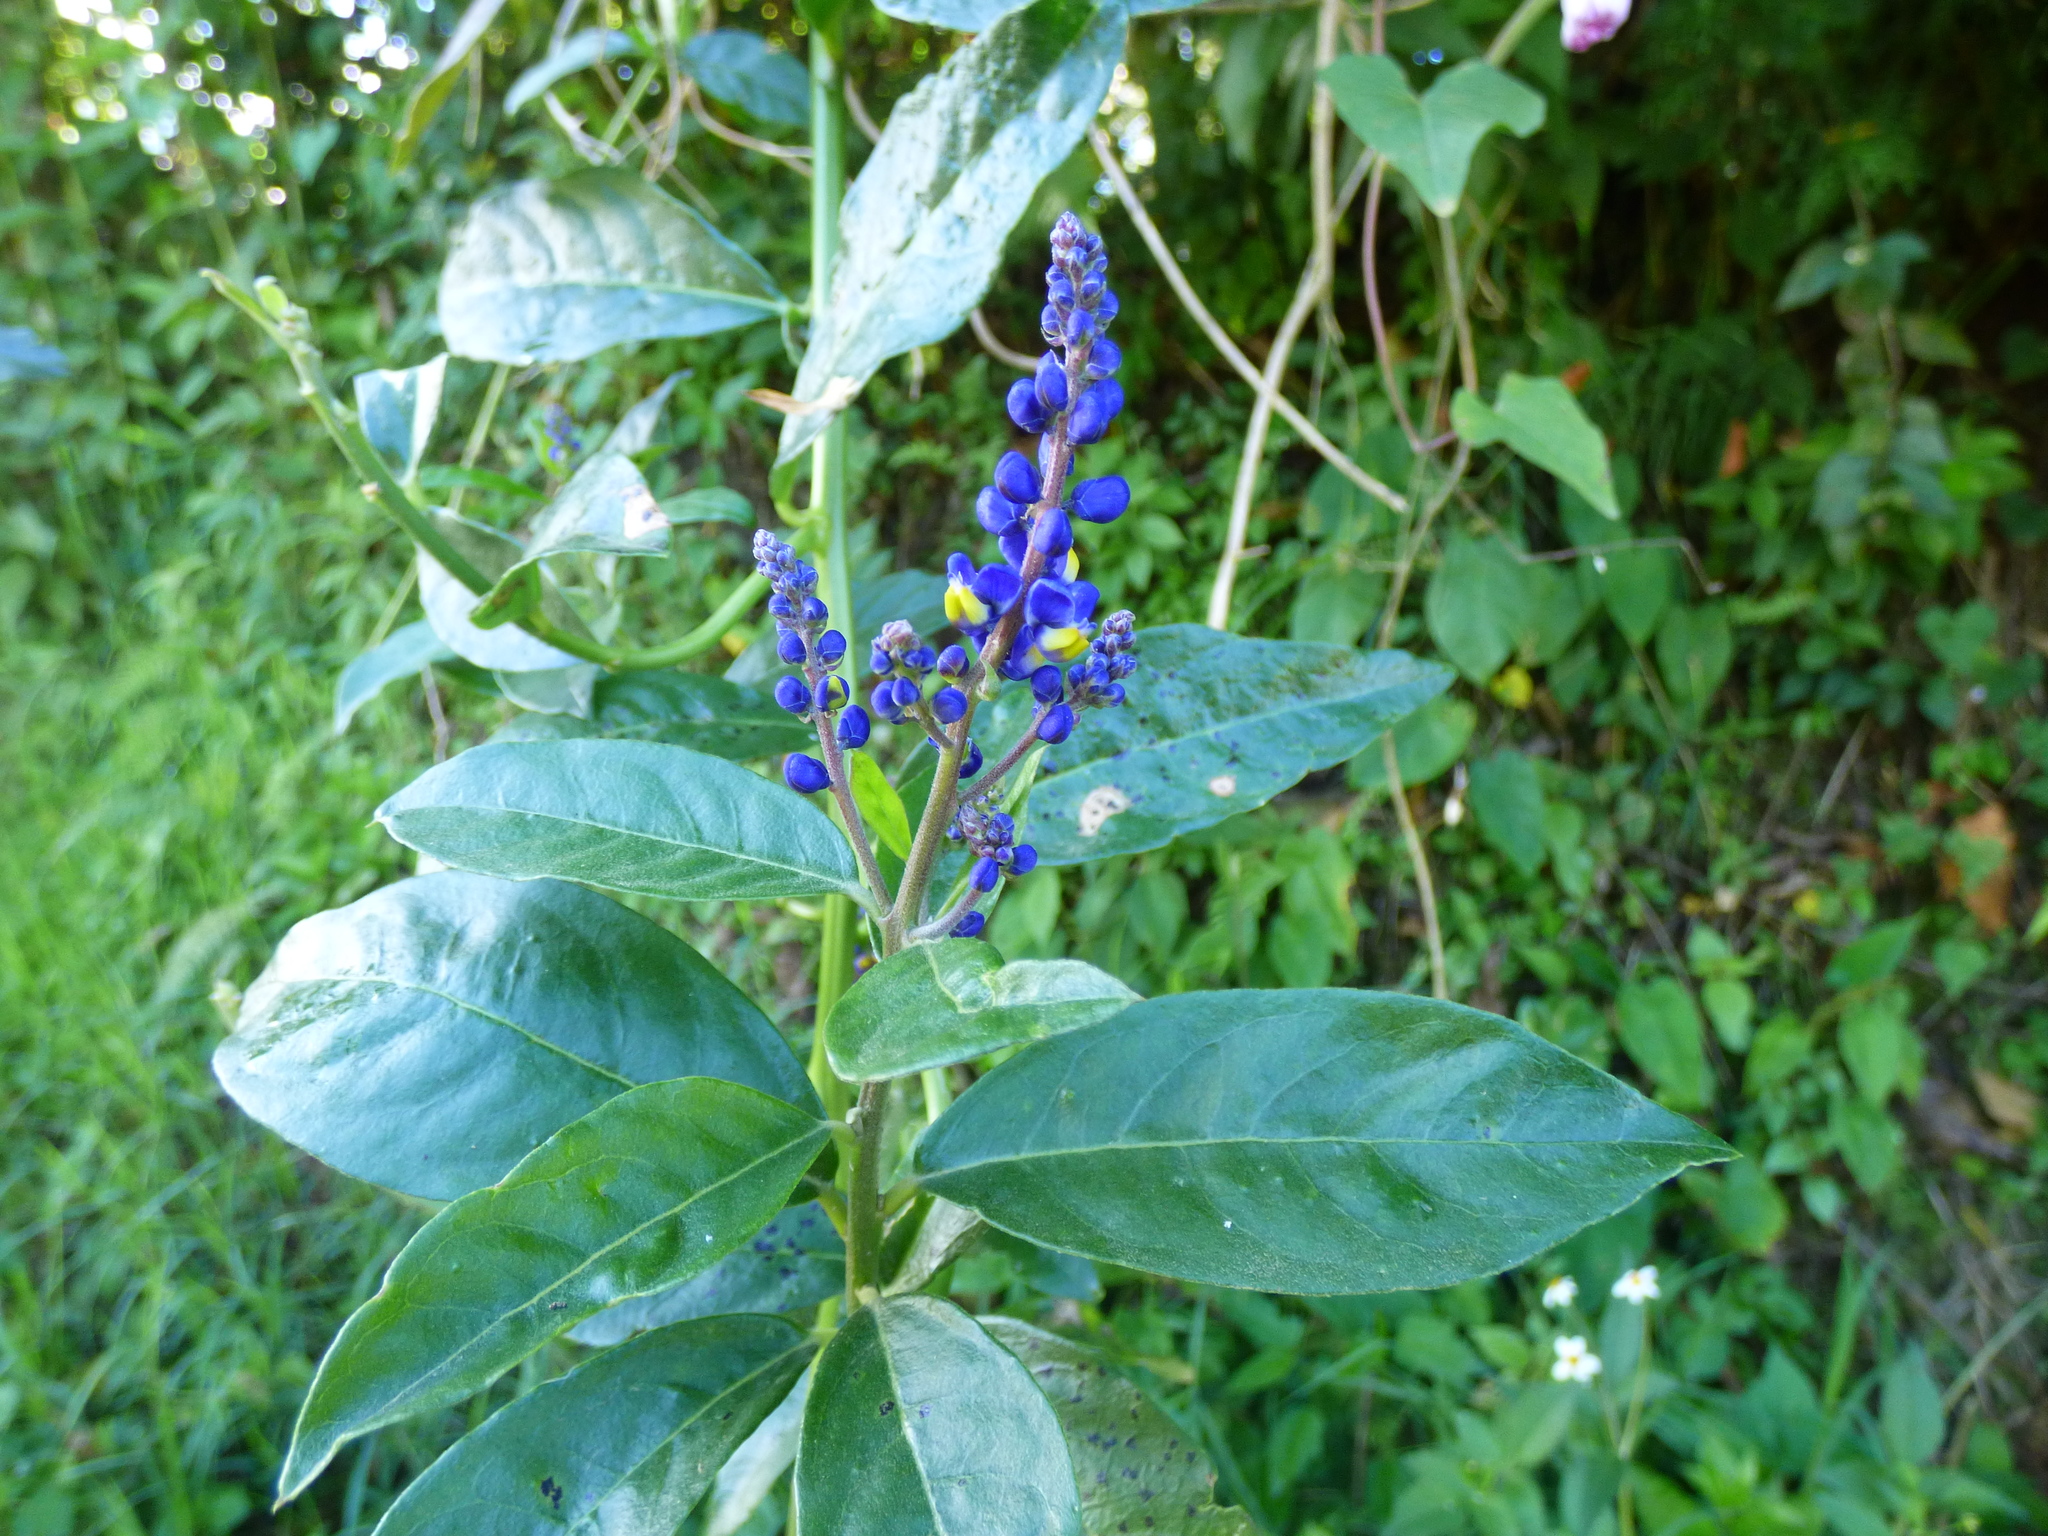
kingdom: Plantae
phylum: Tracheophyta
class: Magnoliopsida
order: Fabales
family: Polygalaceae
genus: Monnina
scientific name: Monnina aestuans
